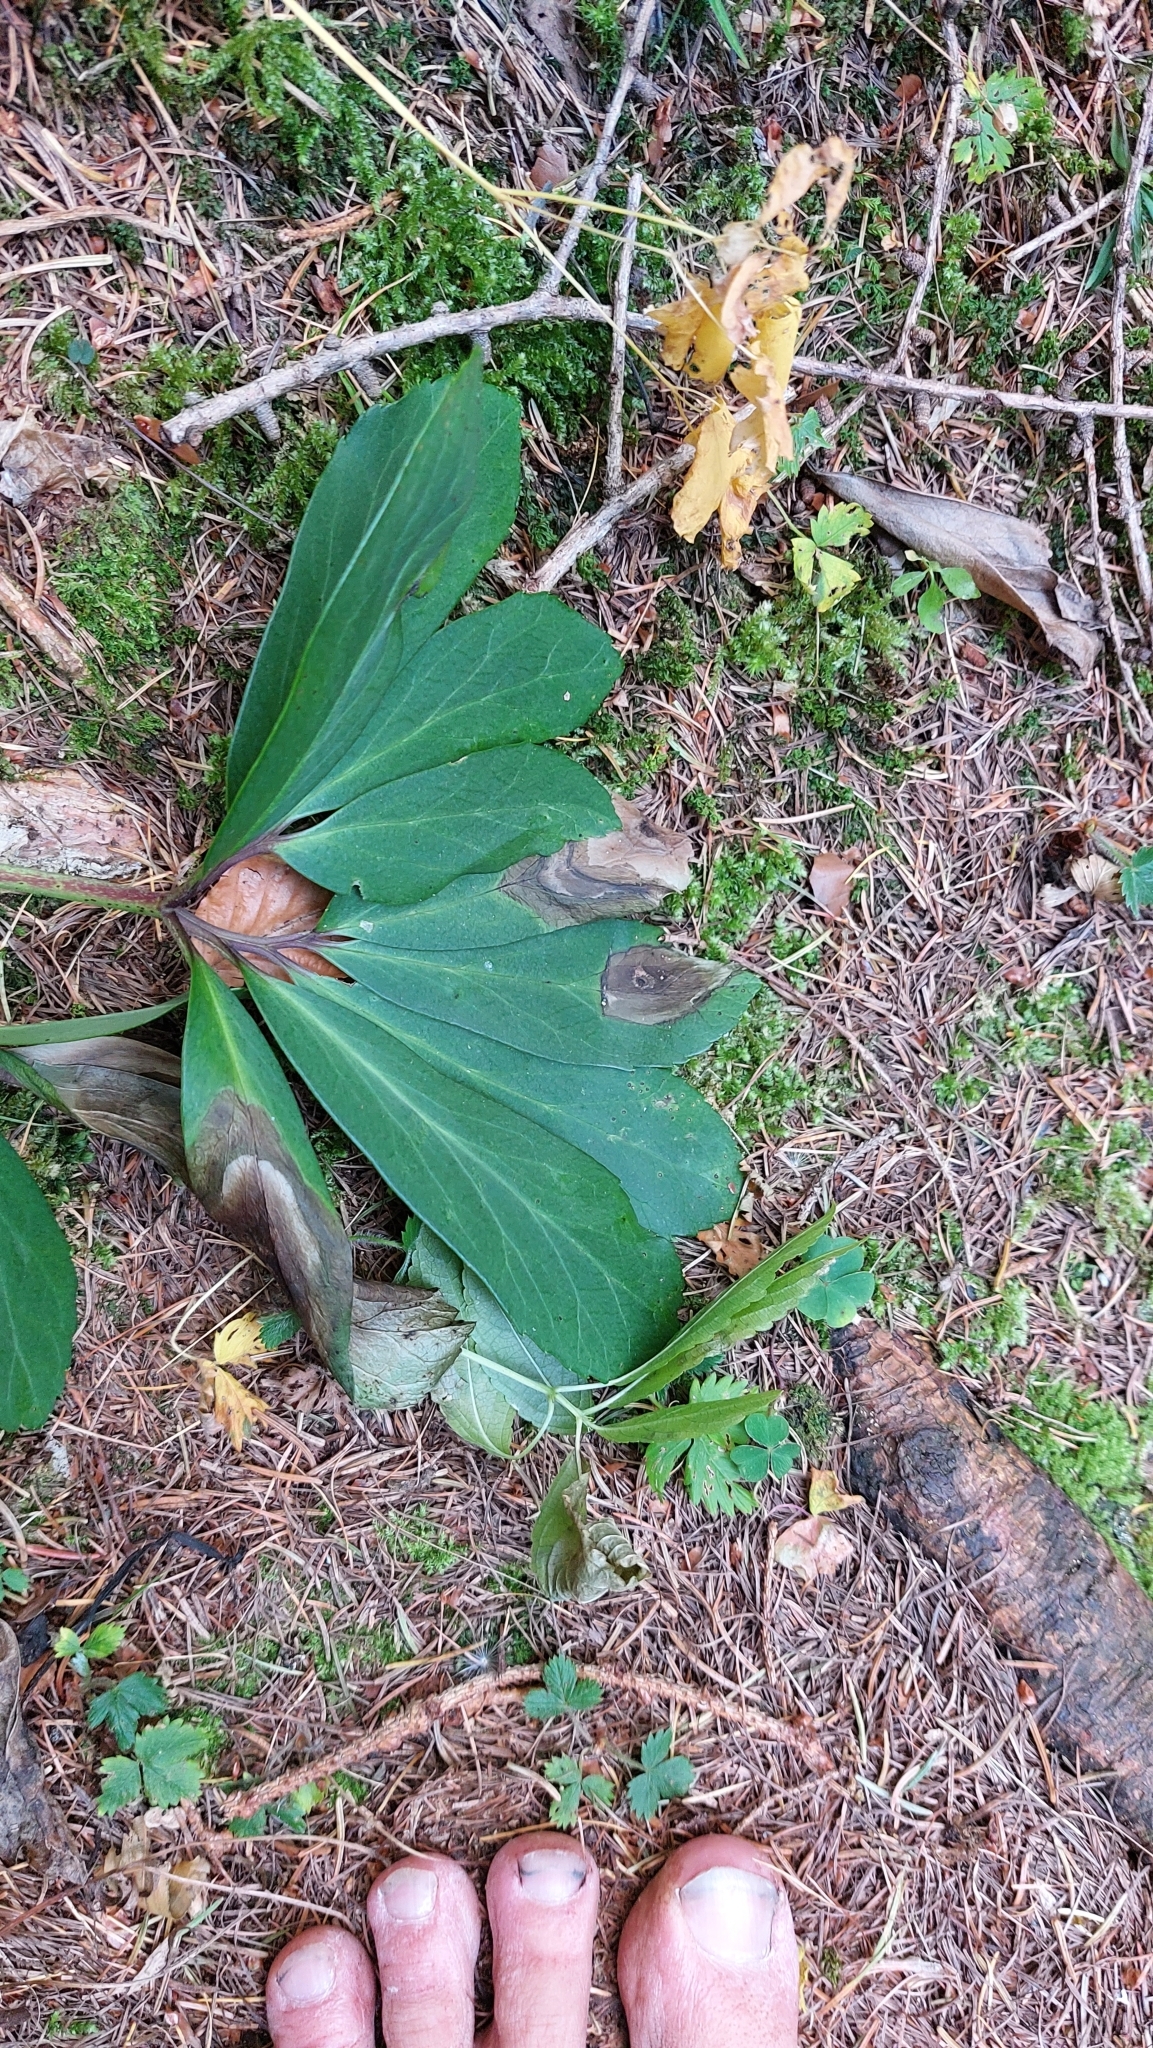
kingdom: Plantae
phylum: Tracheophyta
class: Magnoliopsida
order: Ranunculales
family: Ranunculaceae
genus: Helleborus
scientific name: Helleborus niger
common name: Black hellebore
